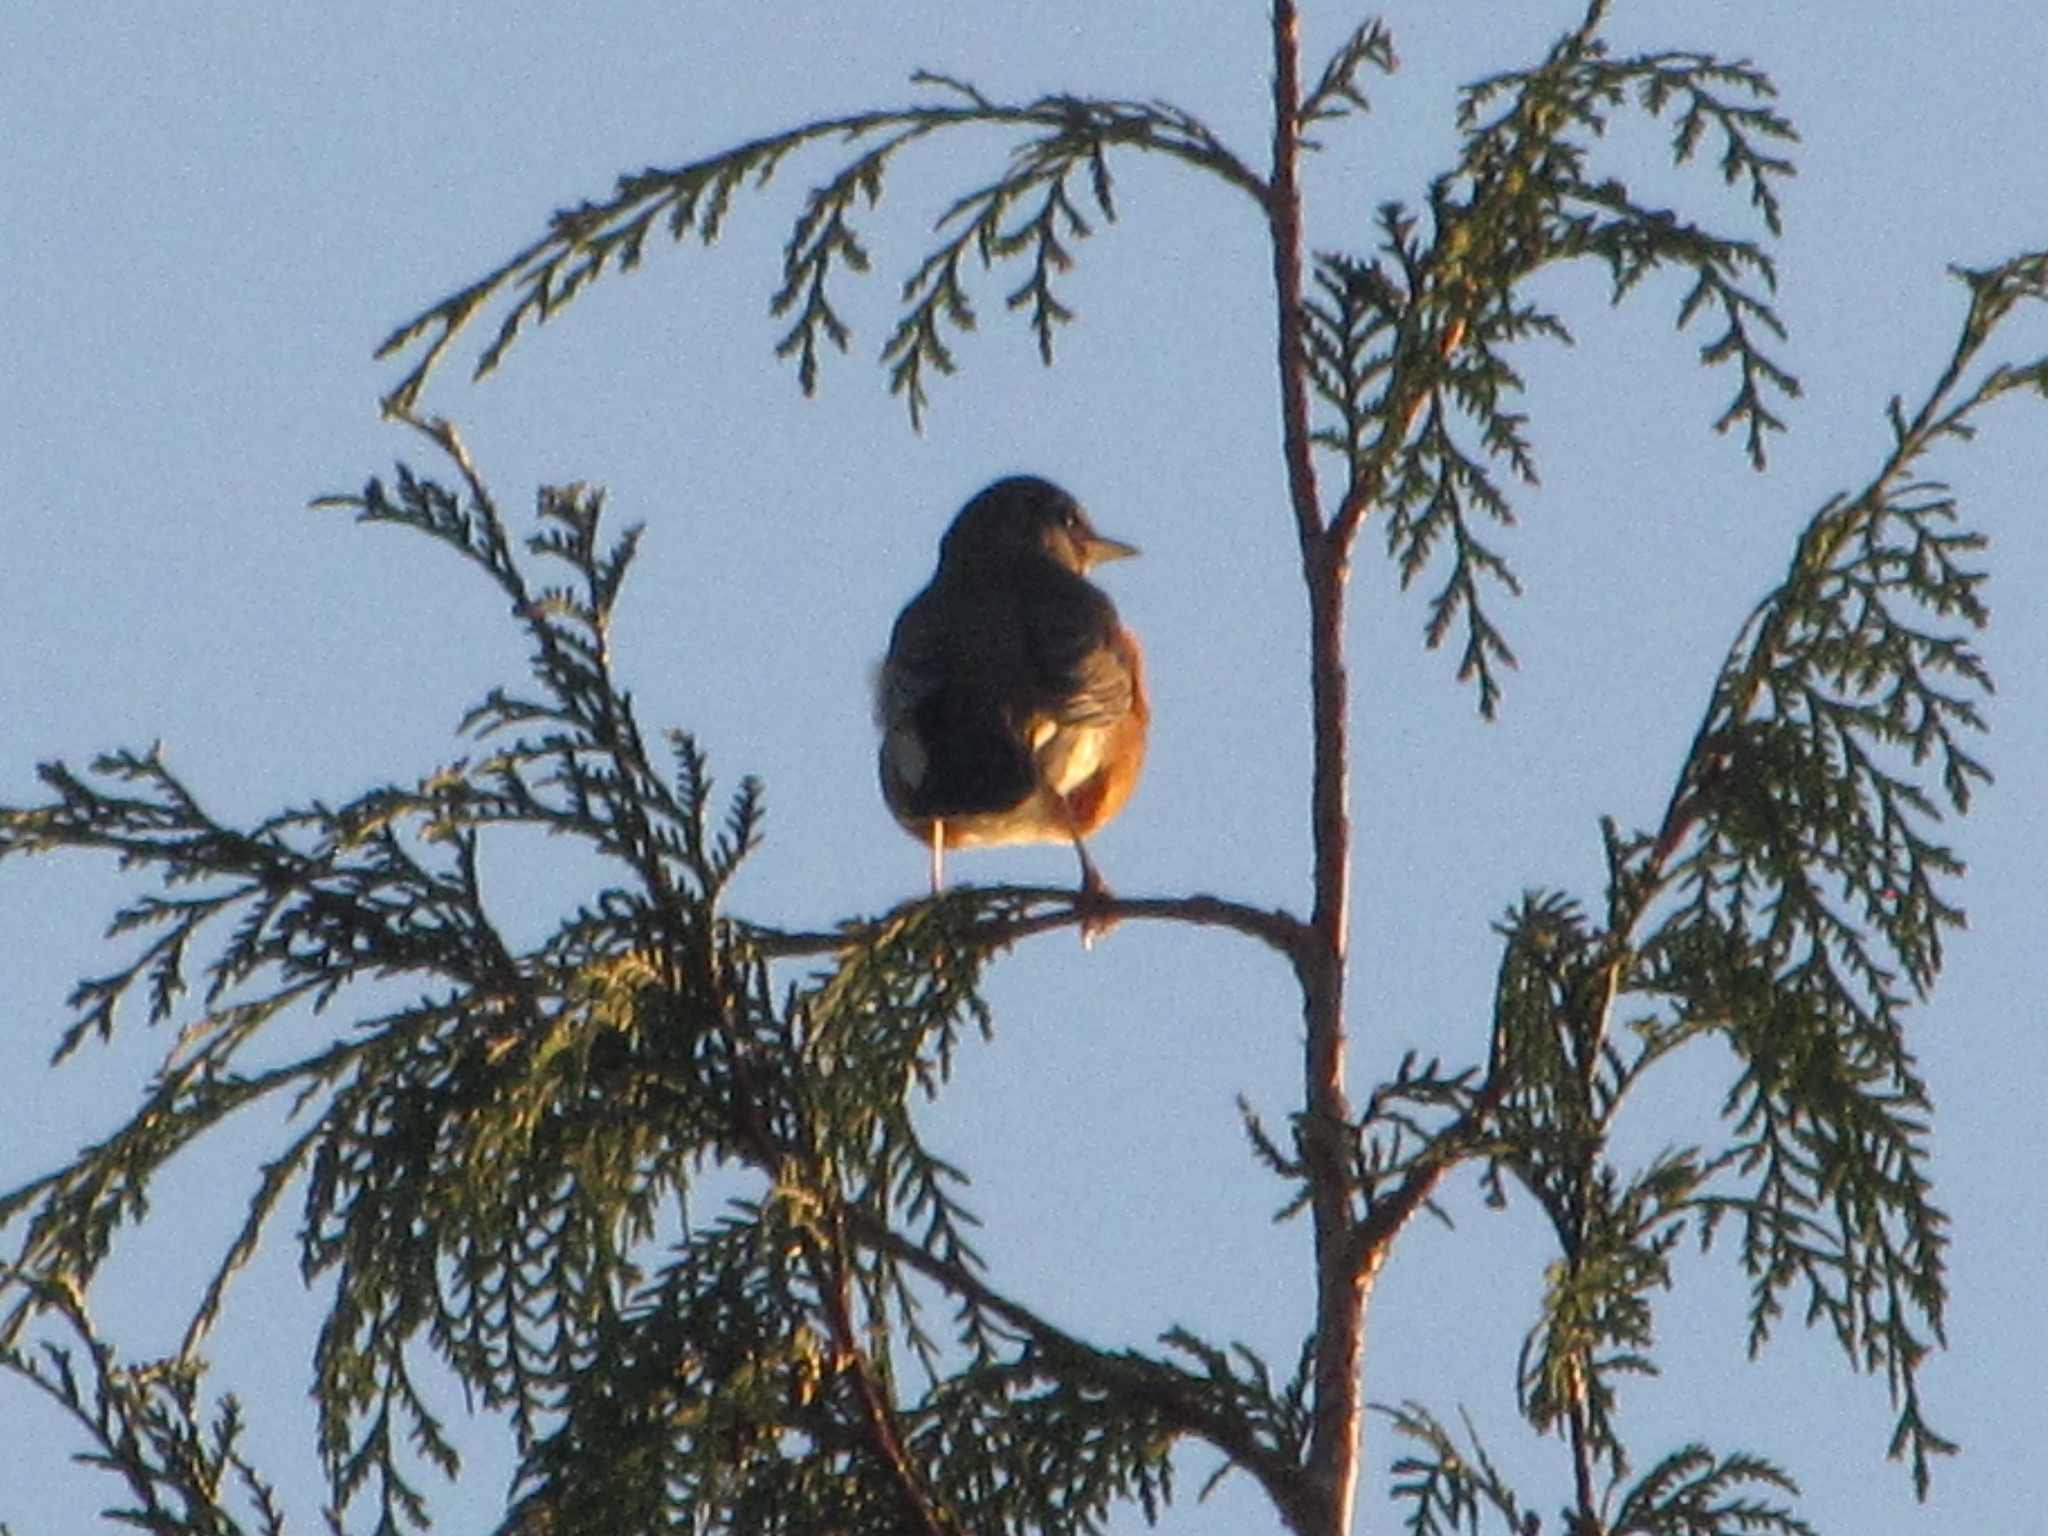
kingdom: Animalia
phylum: Chordata
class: Aves
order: Passeriformes
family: Turdidae
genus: Turdus
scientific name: Turdus migratorius
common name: American robin
